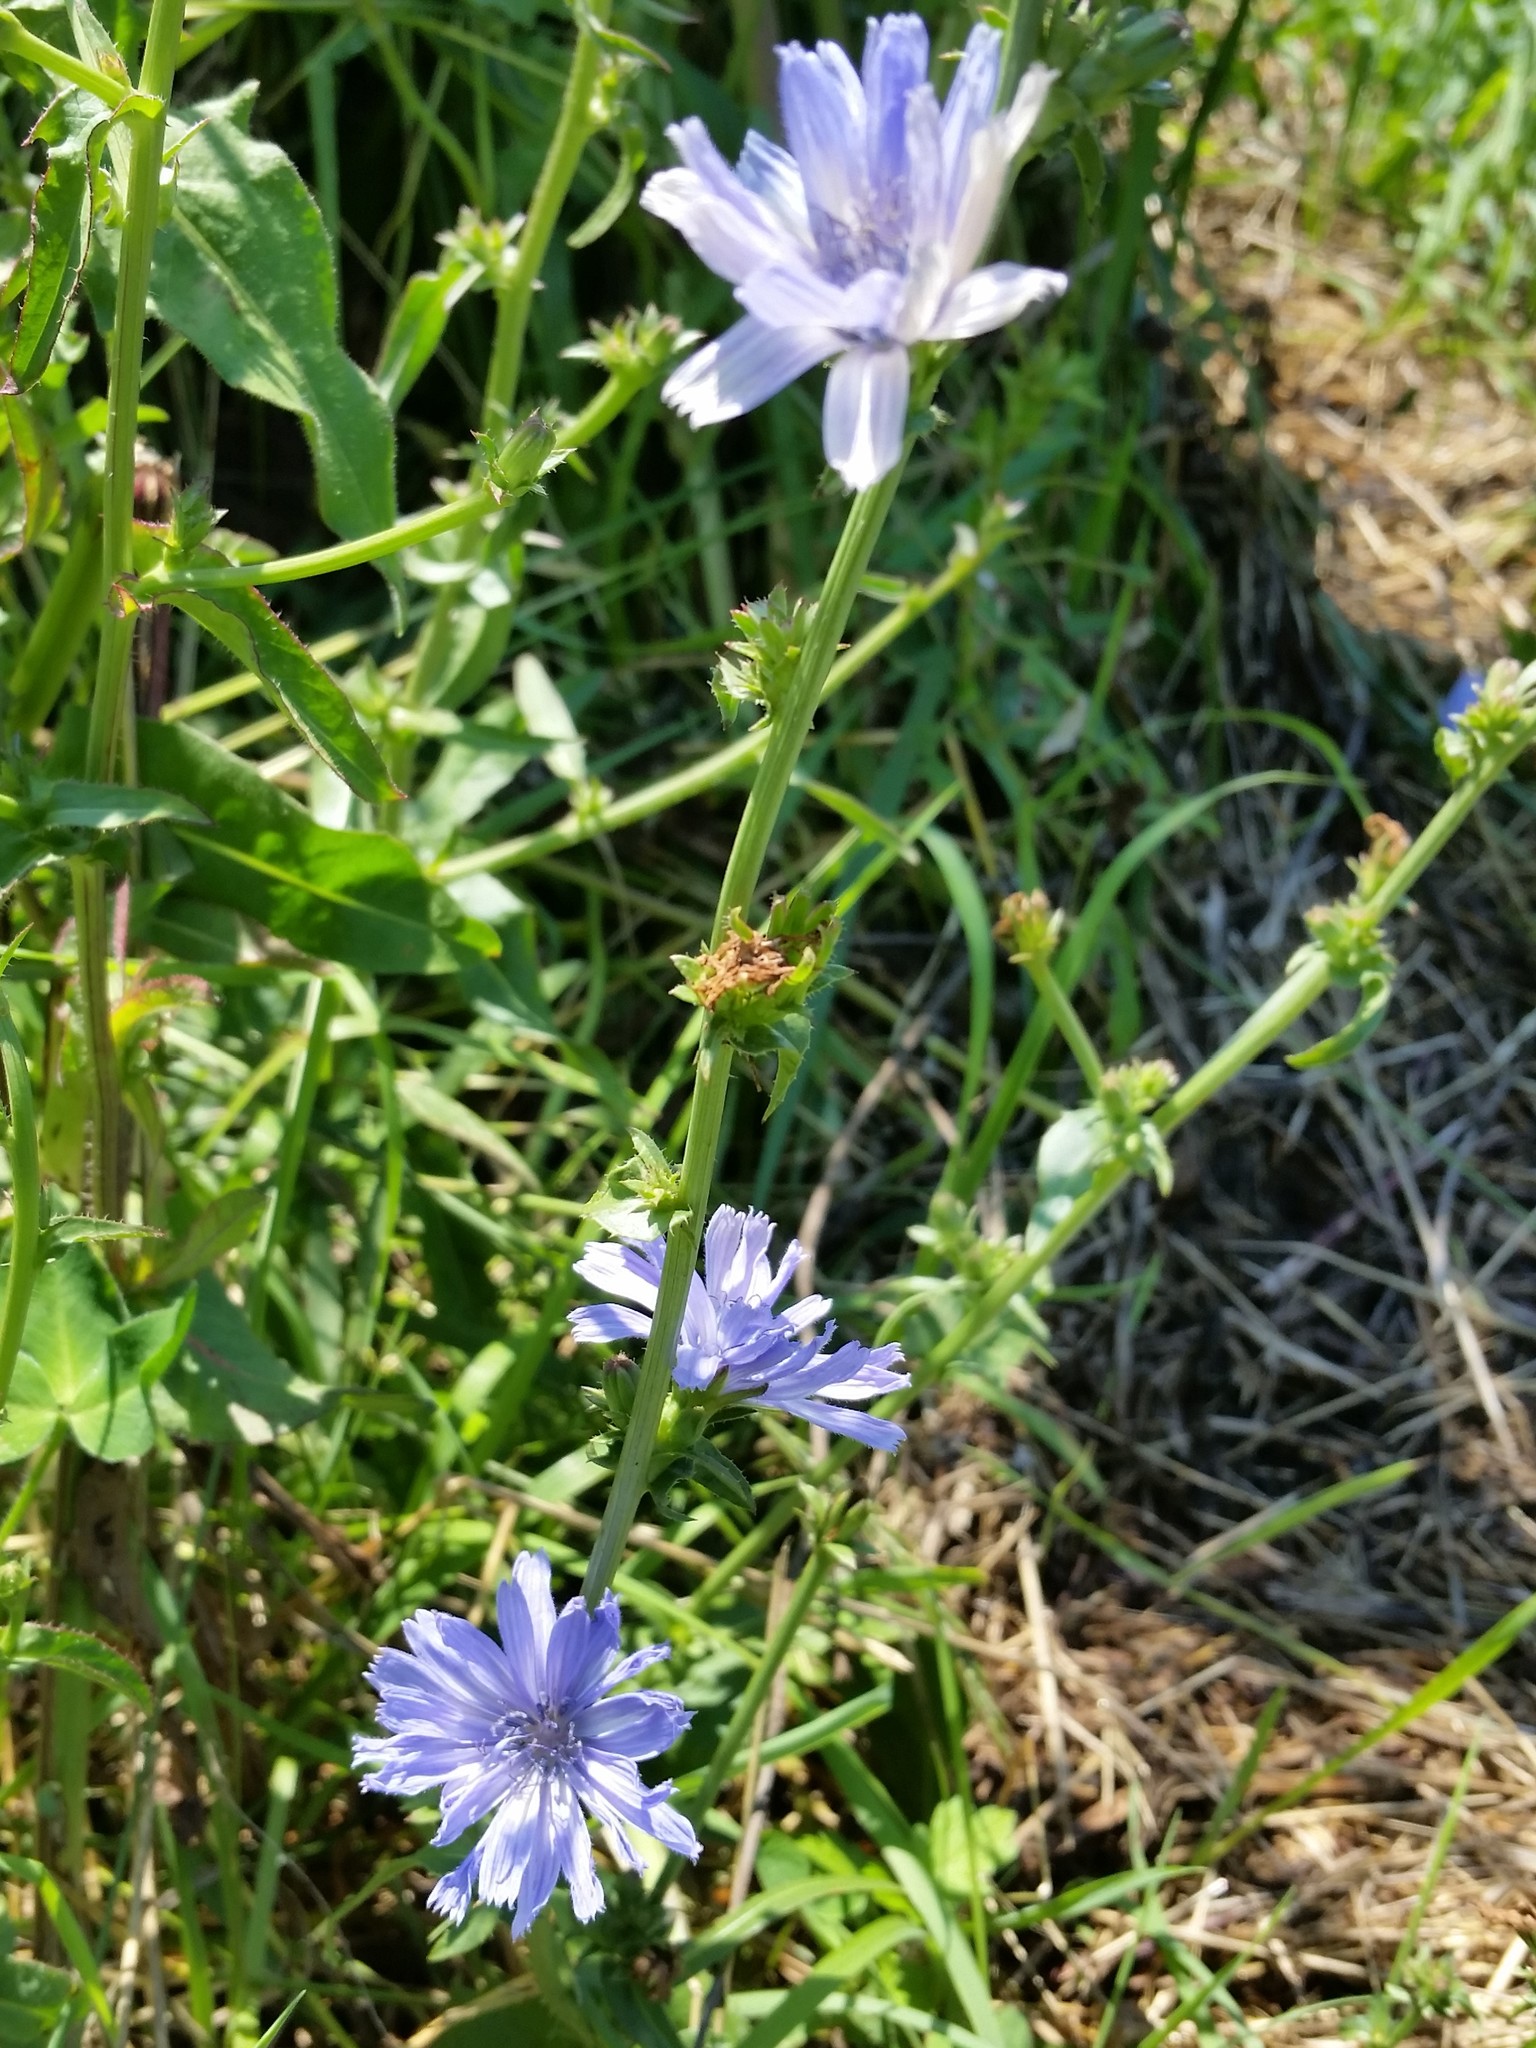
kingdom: Plantae
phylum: Tracheophyta
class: Magnoliopsida
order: Asterales
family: Asteraceae
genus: Cichorium
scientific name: Cichorium intybus
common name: Chicory
